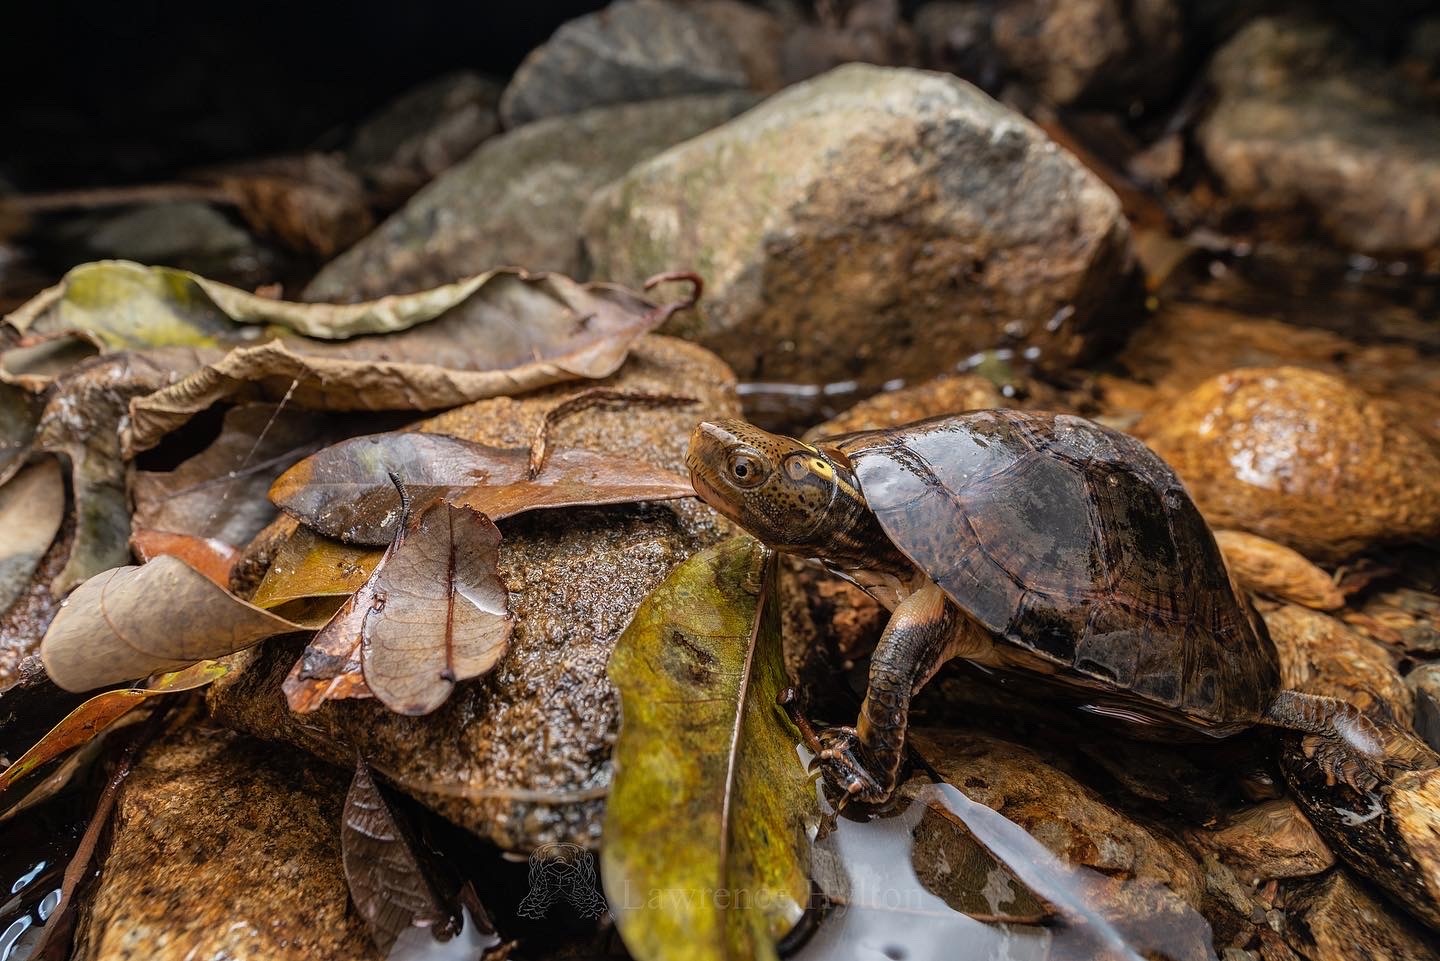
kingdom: Animalia
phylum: Chordata
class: Testudines
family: Geoemydidae
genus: Sacalia
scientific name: Sacalia bealei
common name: Beal’s four-eyed turtle
